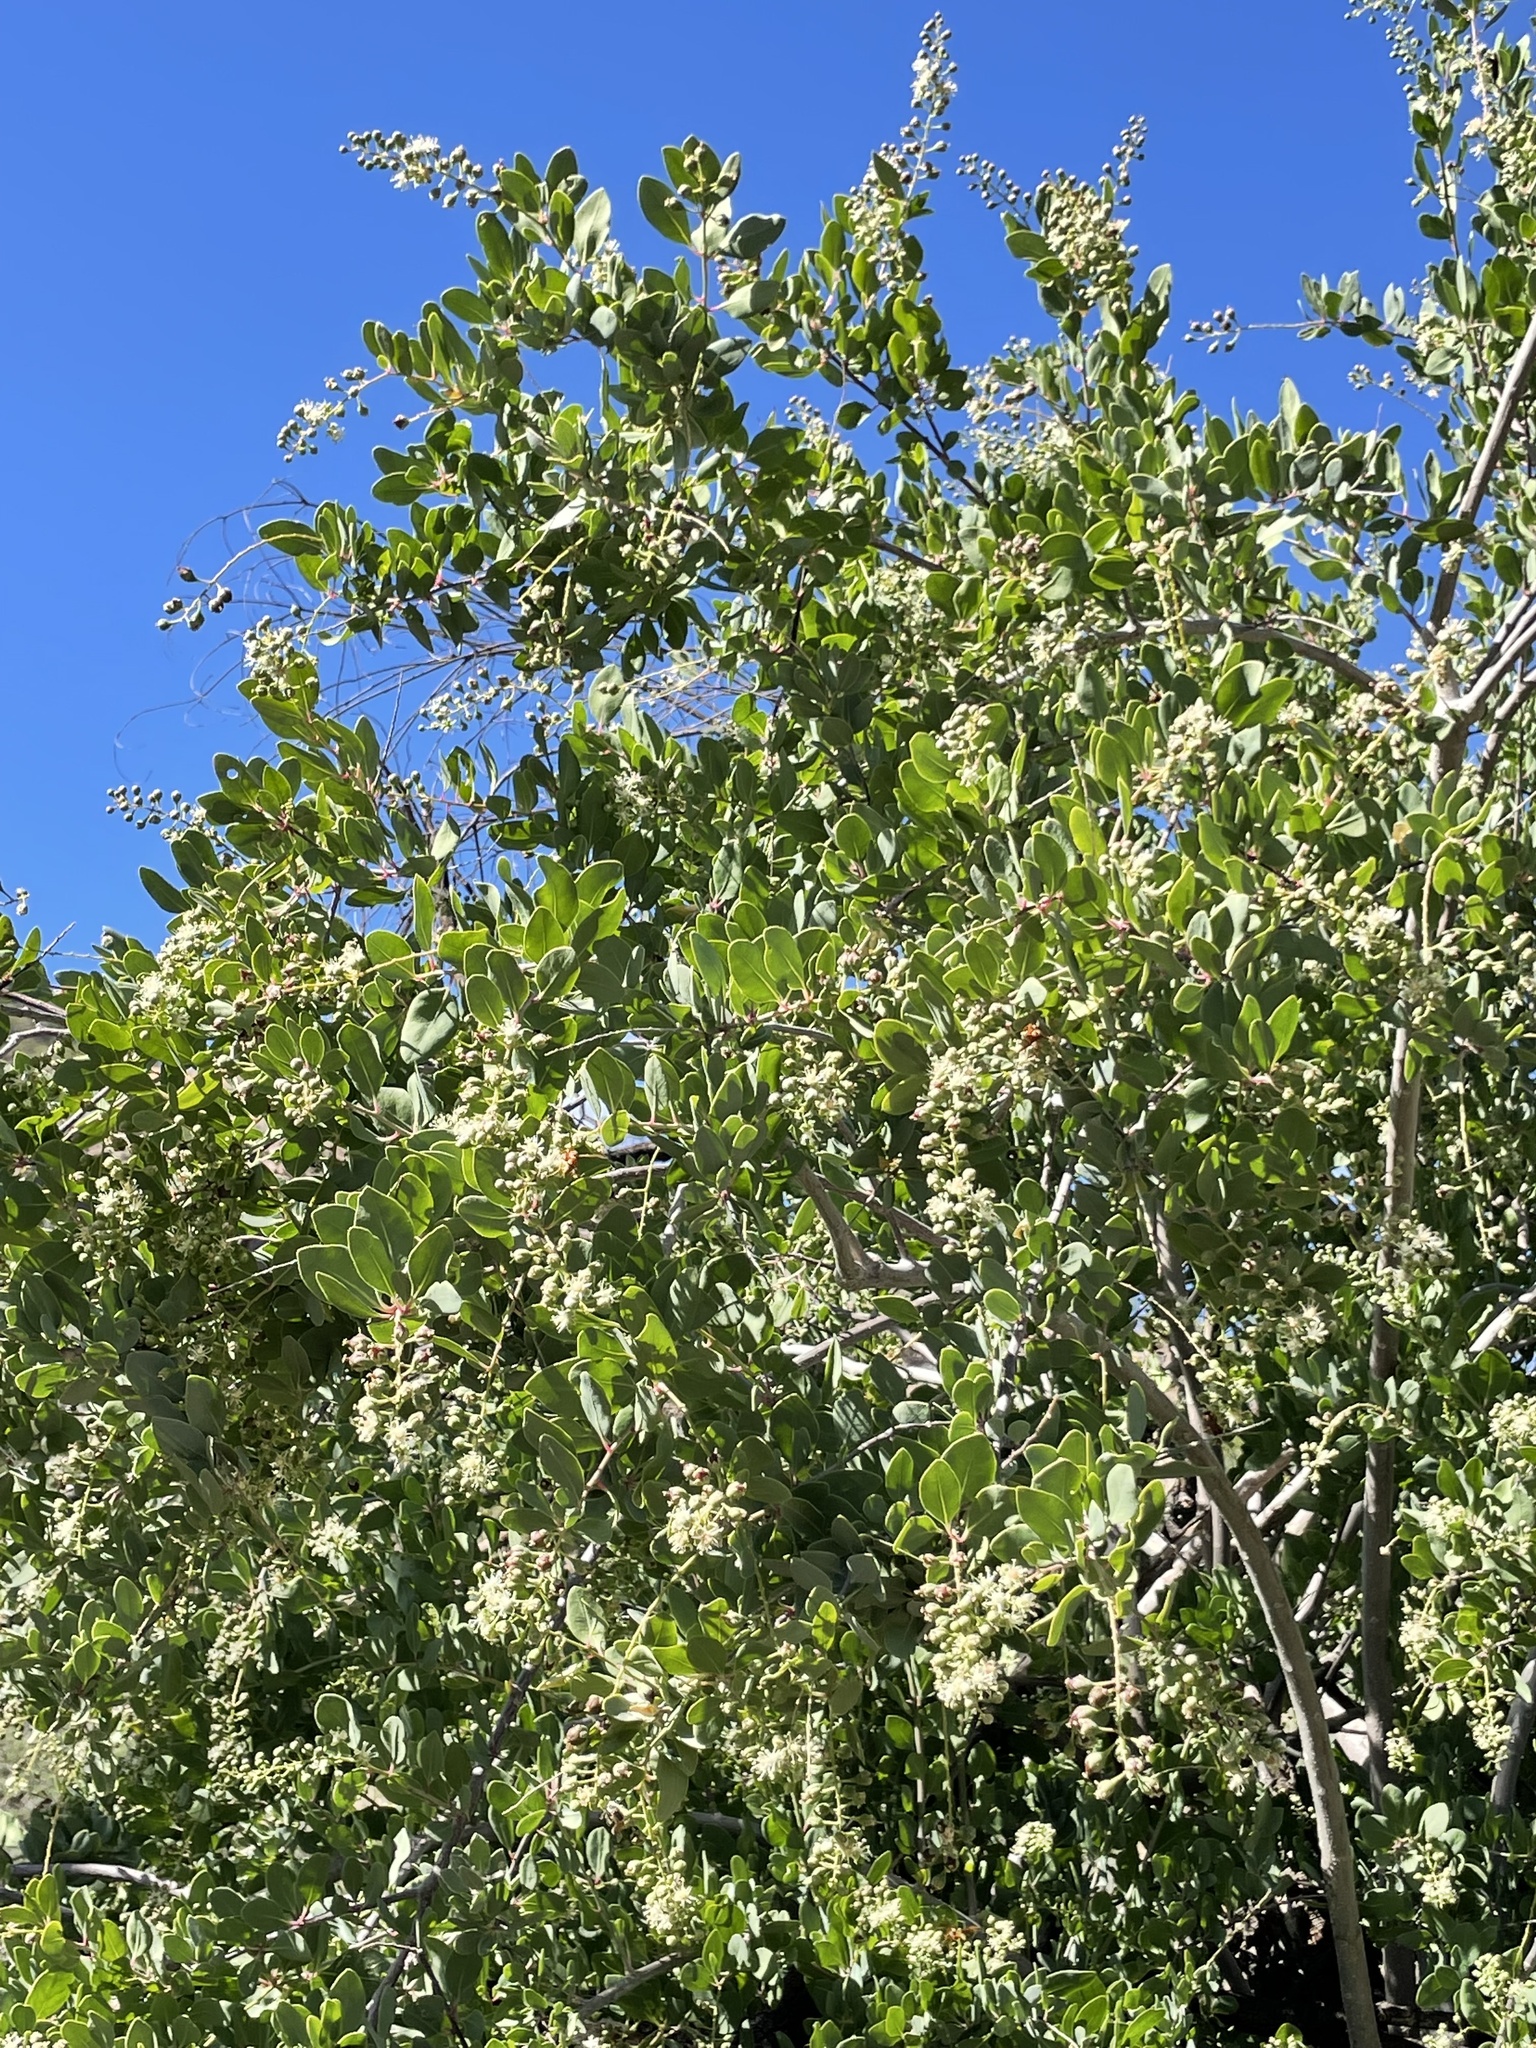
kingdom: Plantae
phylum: Tracheophyta
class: Magnoliopsida
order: Caryophyllales
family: Stegnospermataceae
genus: Stegnosperma
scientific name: Stegnosperma halimifolium
